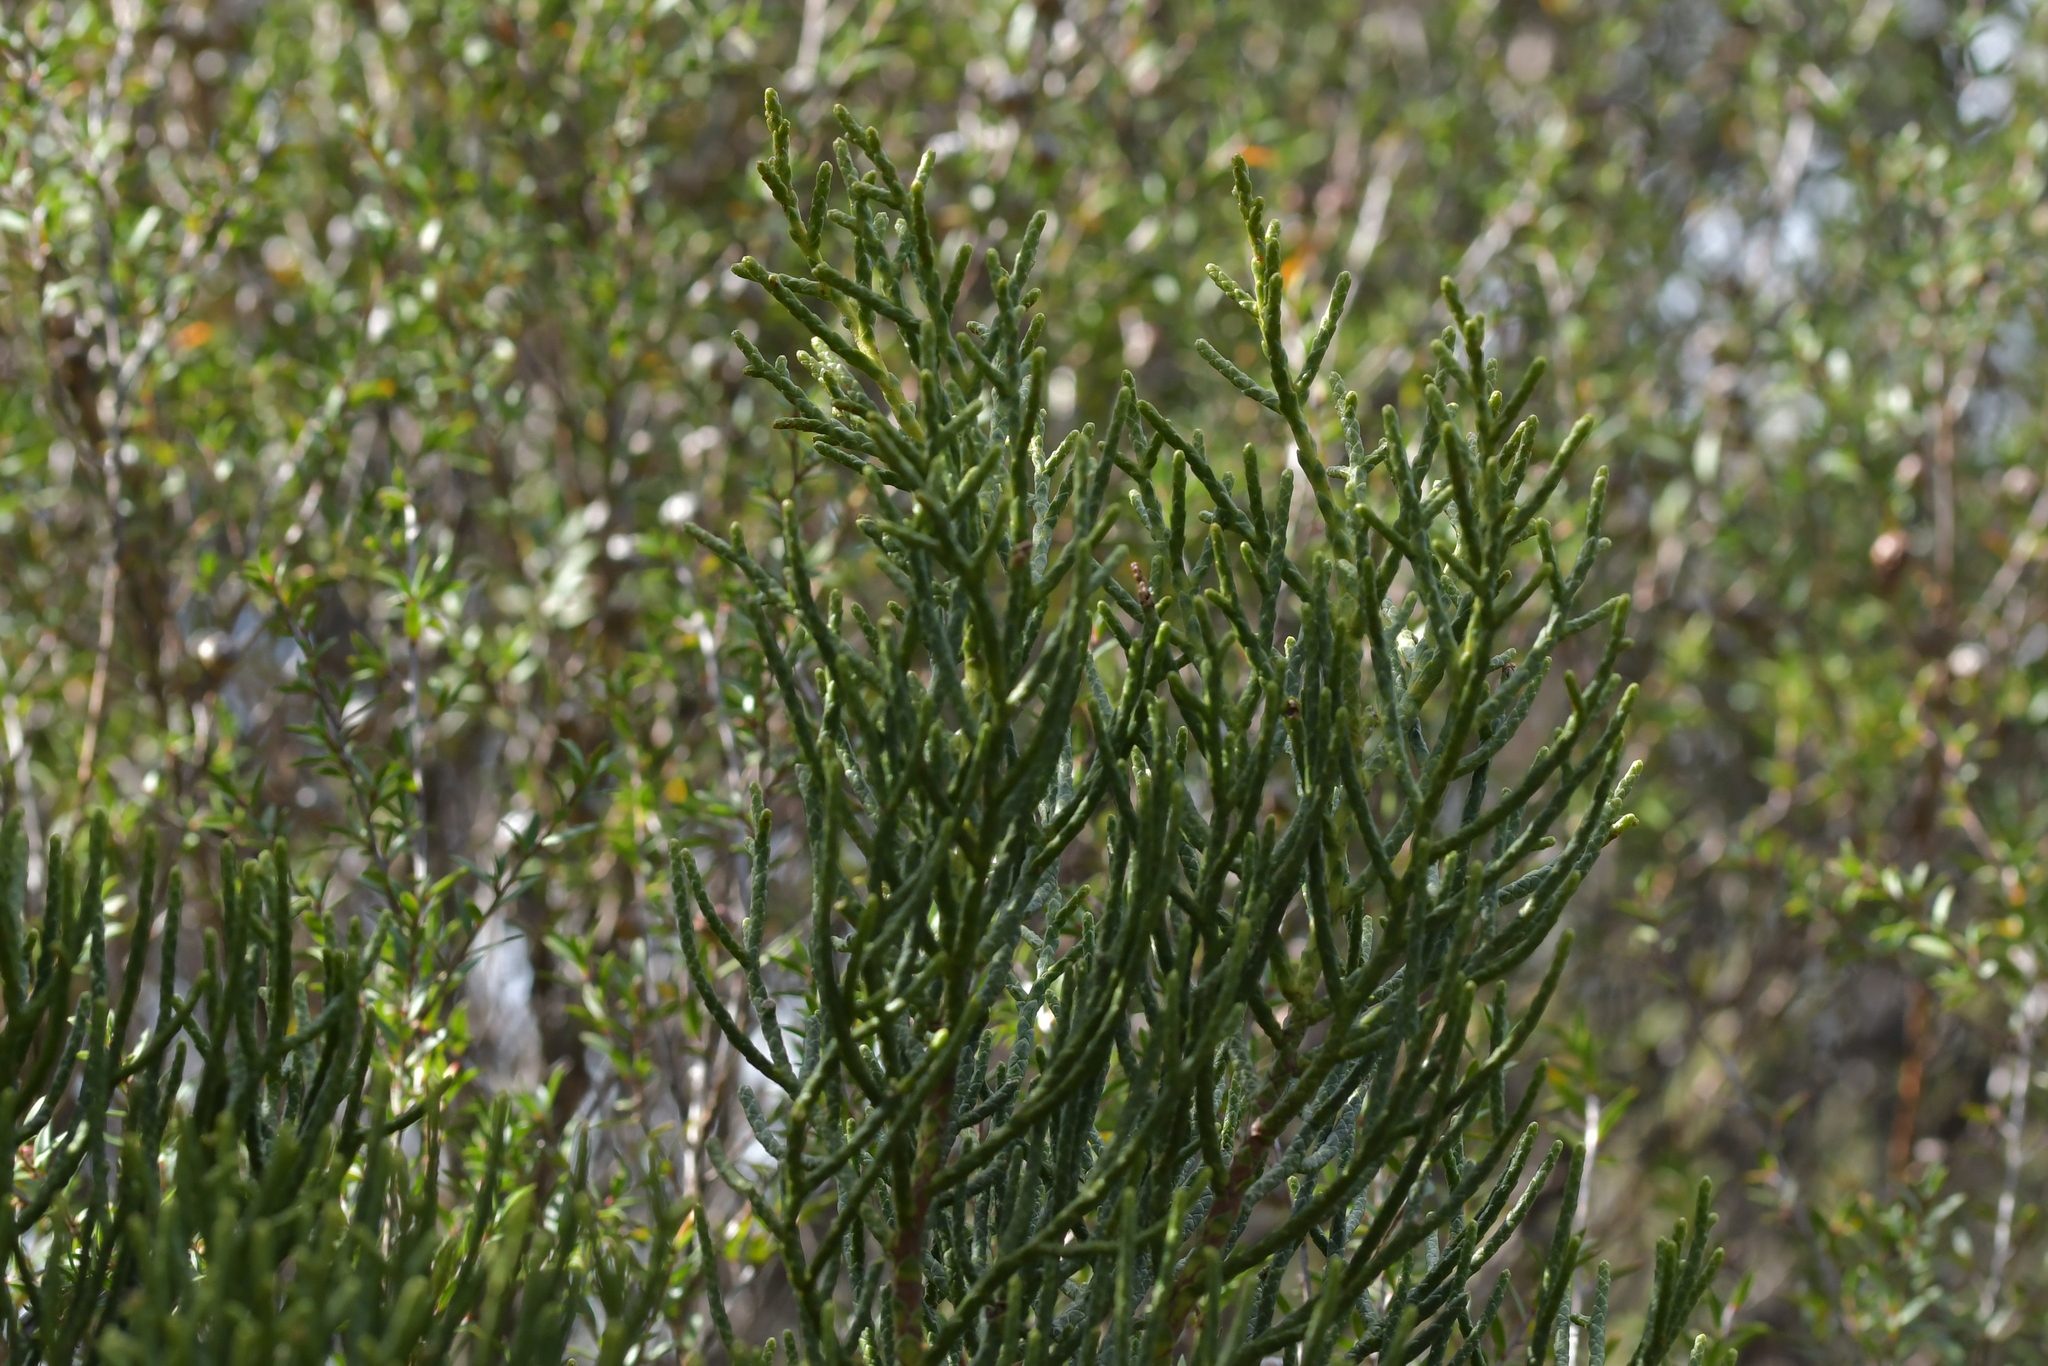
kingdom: Plantae
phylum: Tracheophyta
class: Pinopsida
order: Pinales
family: Podocarpaceae
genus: Halocarpus
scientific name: Halocarpus kirkii
